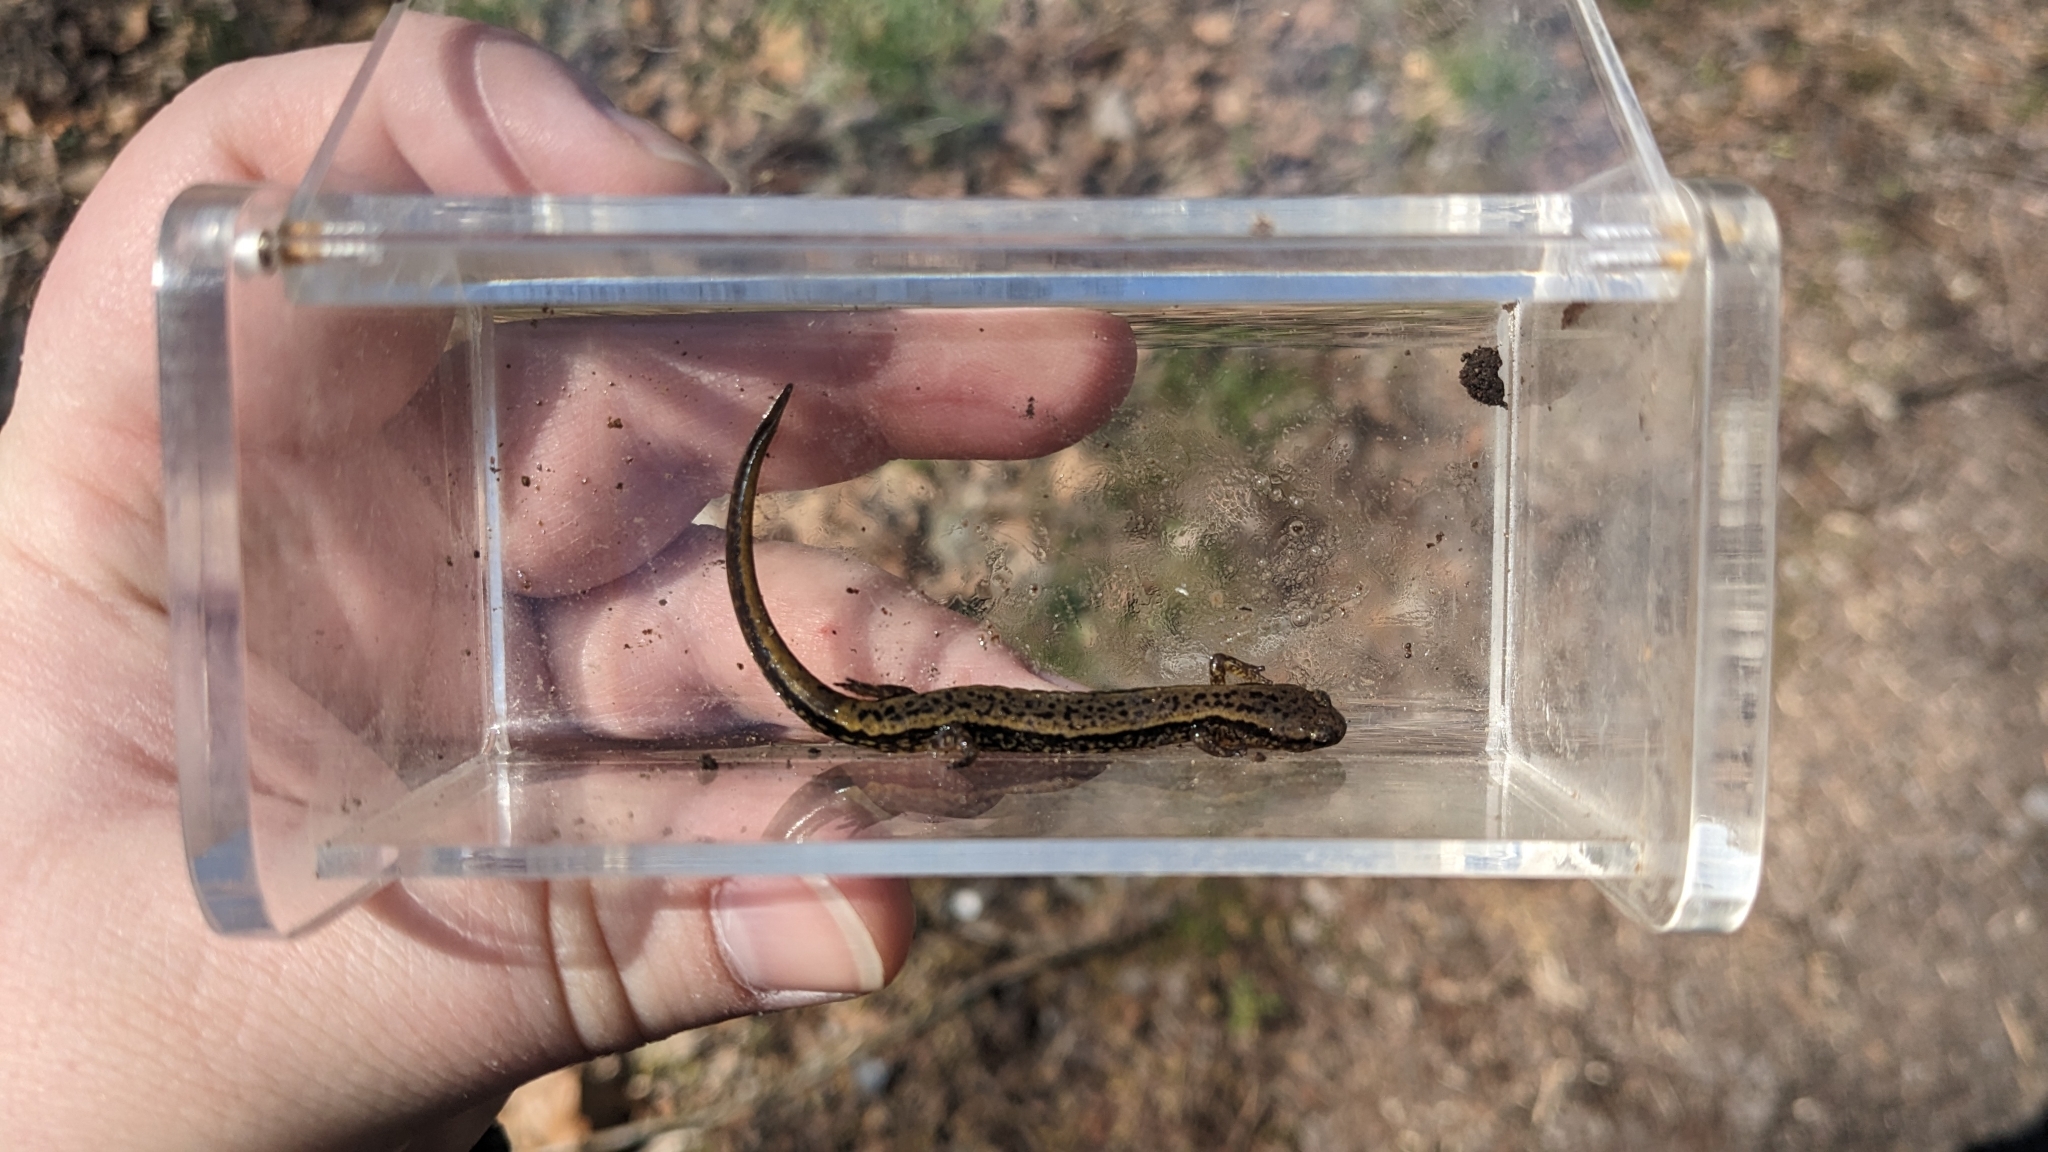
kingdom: Animalia
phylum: Chordata
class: Amphibia
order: Caudata
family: Plethodontidae
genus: Eurycea
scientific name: Eurycea cirrigera
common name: Southern two-lined salamander
